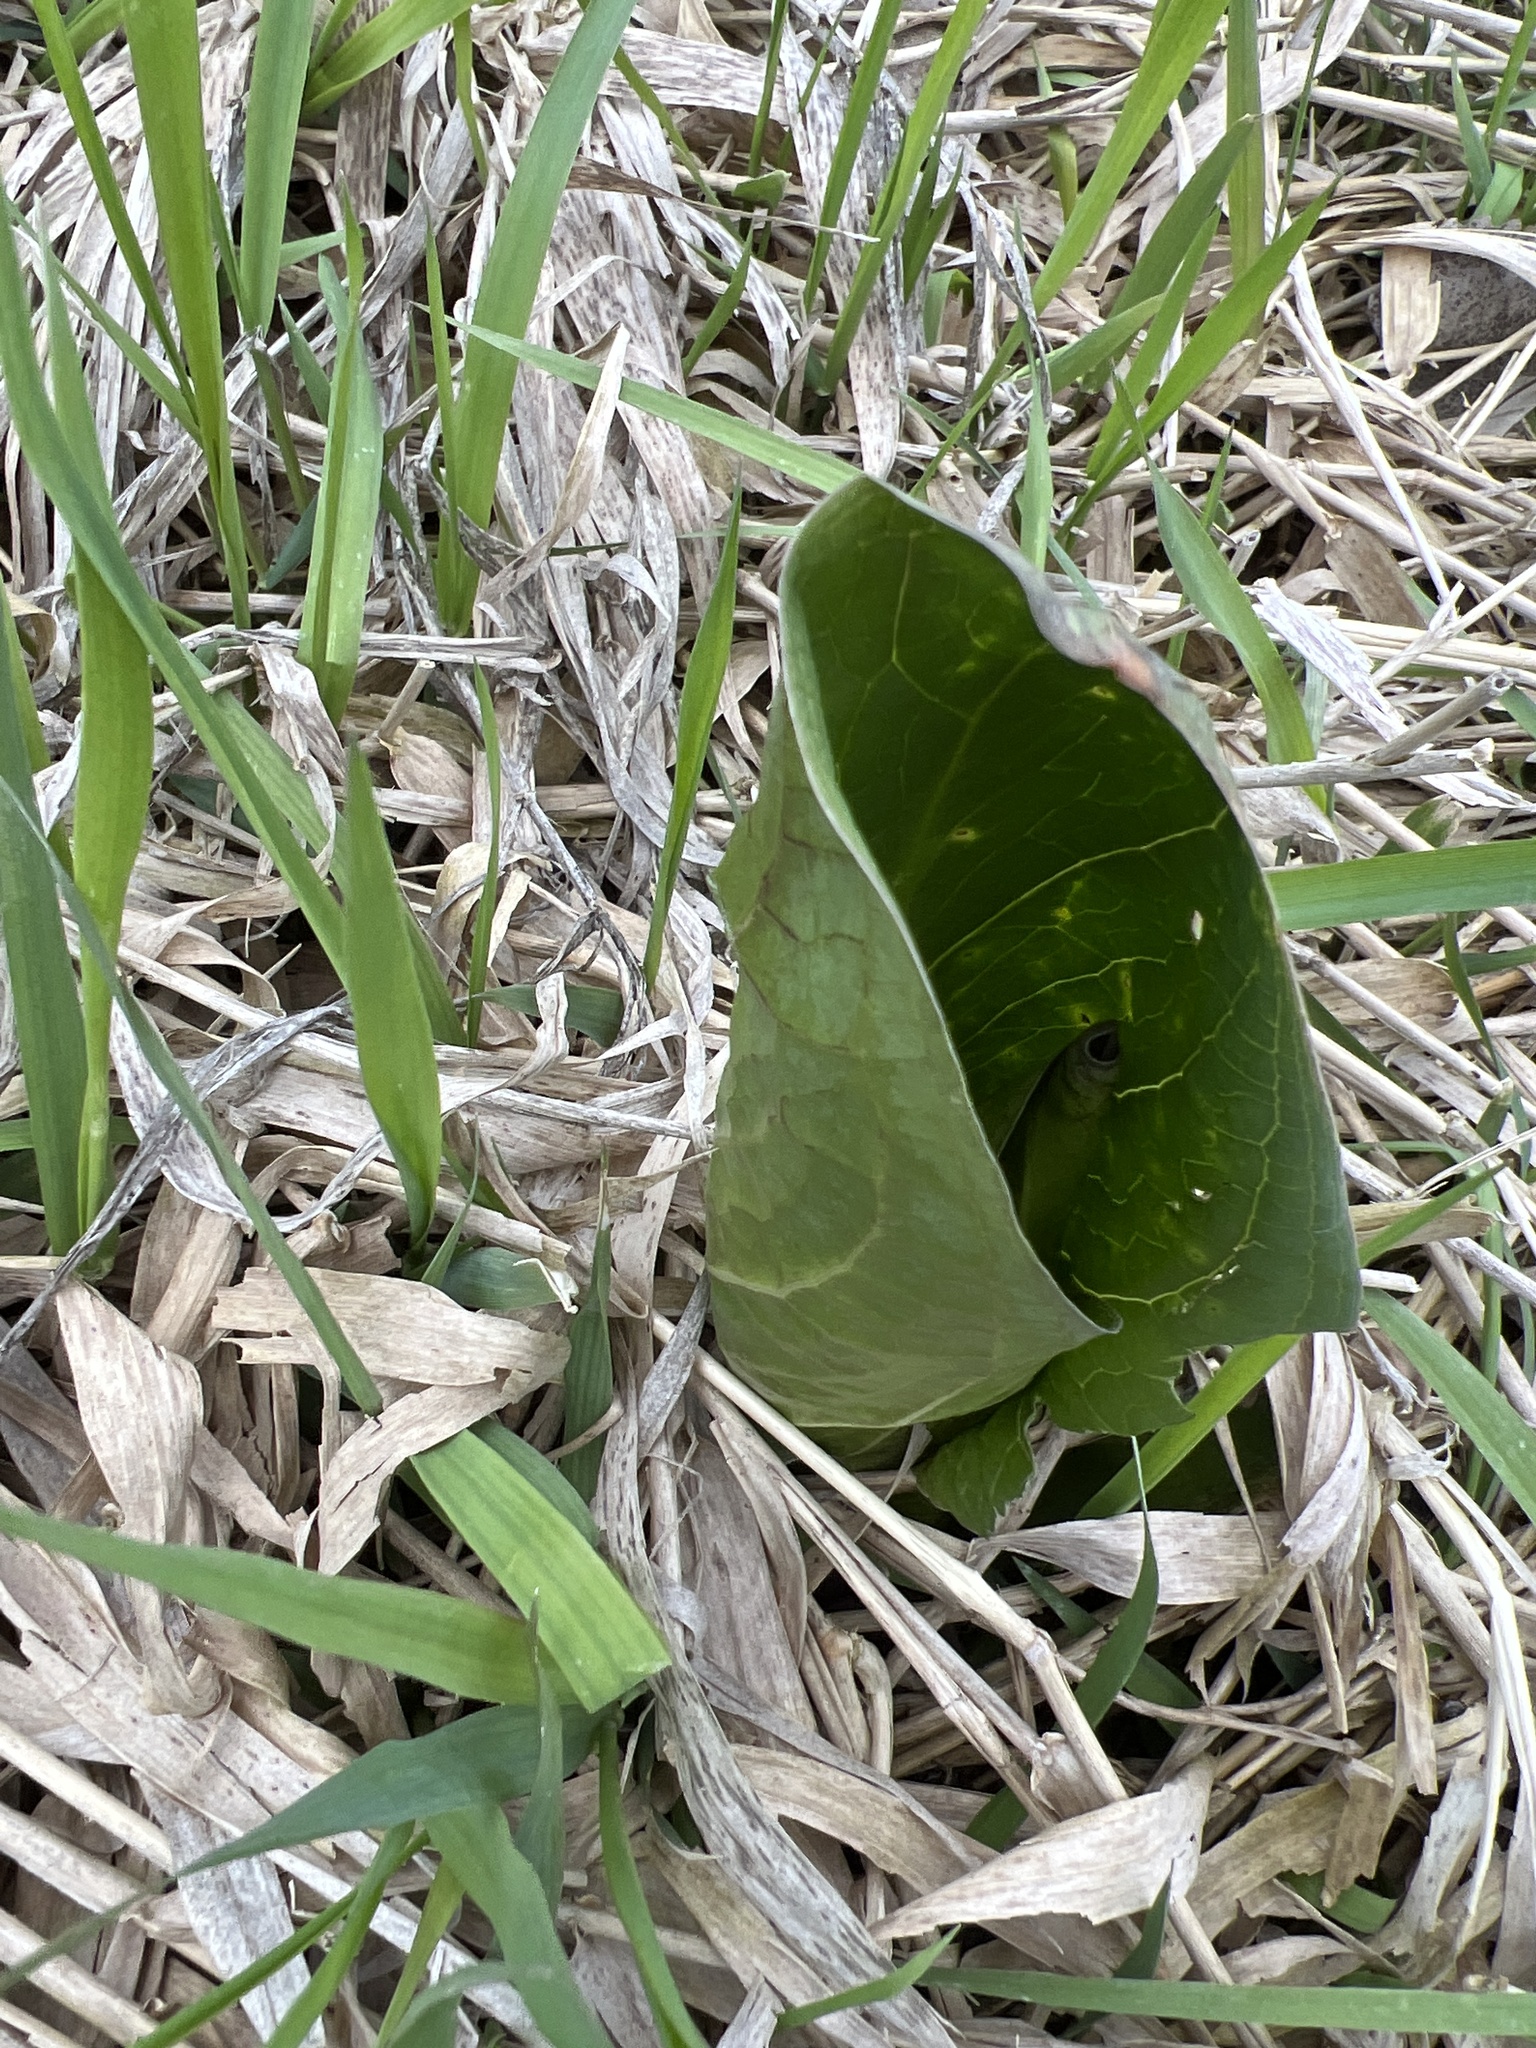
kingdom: Plantae
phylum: Tracheophyta
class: Liliopsida
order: Alismatales
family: Araceae
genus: Symplocarpus
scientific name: Symplocarpus foetidus
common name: Eastern skunk cabbage
